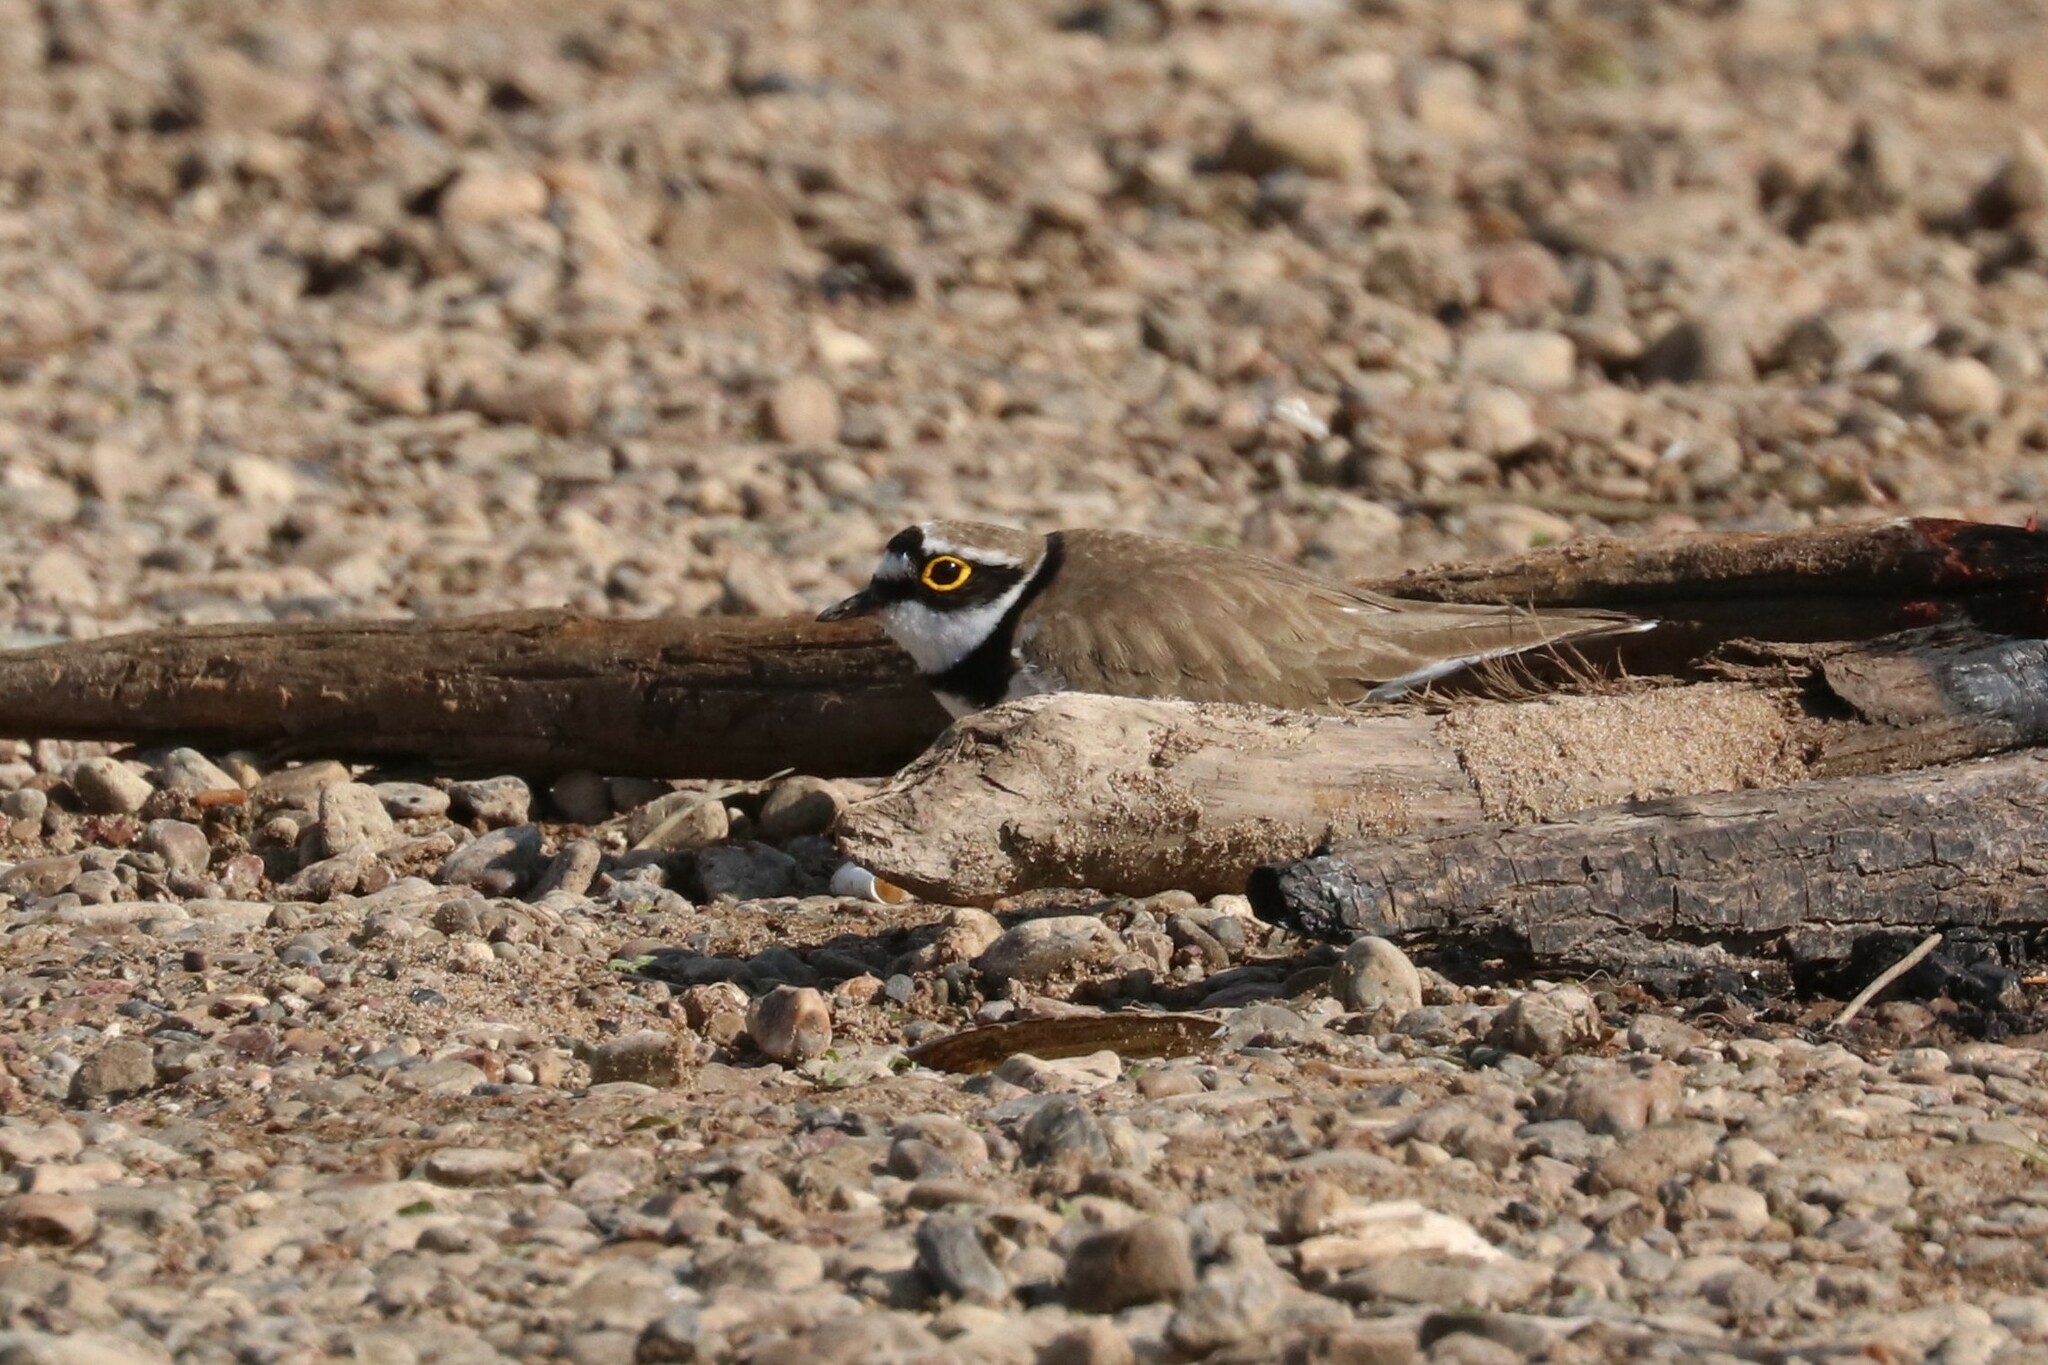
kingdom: Animalia
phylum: Chordata
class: Aves
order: Charadriiformes
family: Charadriidae
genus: Charadrius
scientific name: Charadrius dubius
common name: Little ringed plover
